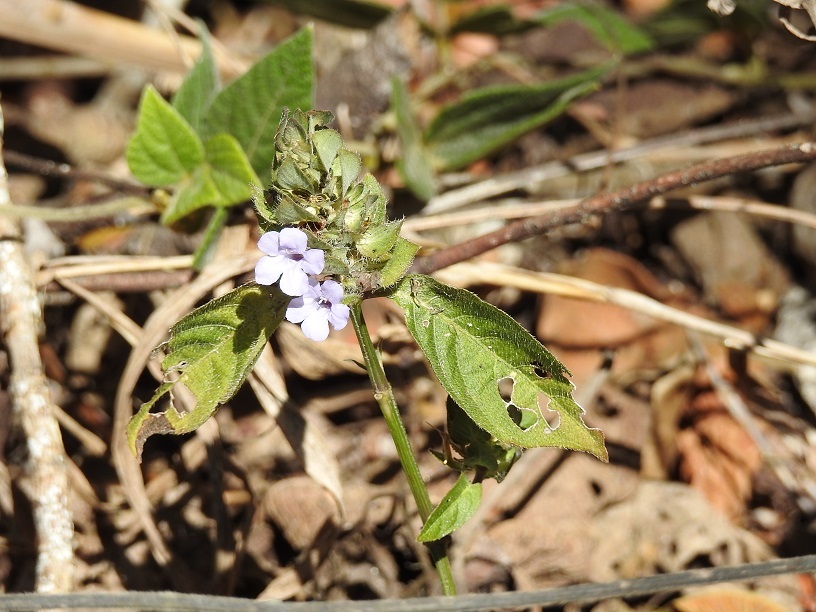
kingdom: Plantae
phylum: Tracheophyta
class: Magnoliopsida
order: Lamiales
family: Acanthaceae
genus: Ruellia
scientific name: Ruellia blechum
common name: Browne's blechum
